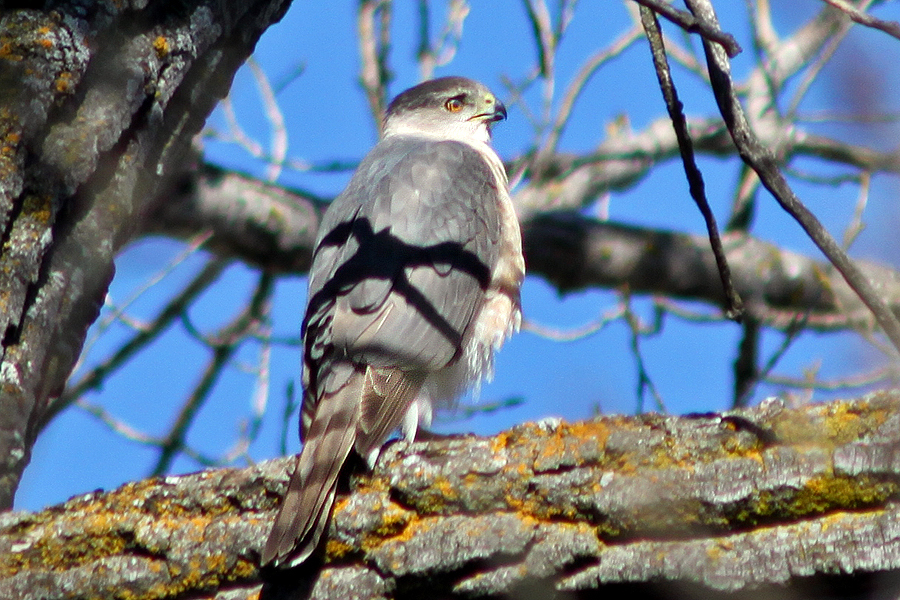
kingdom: Animalia
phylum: Chordata
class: Aves
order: Accipitriformes
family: Accipitridae
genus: Accipiter
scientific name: Accipiter cooperii
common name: Cooper's hawk
